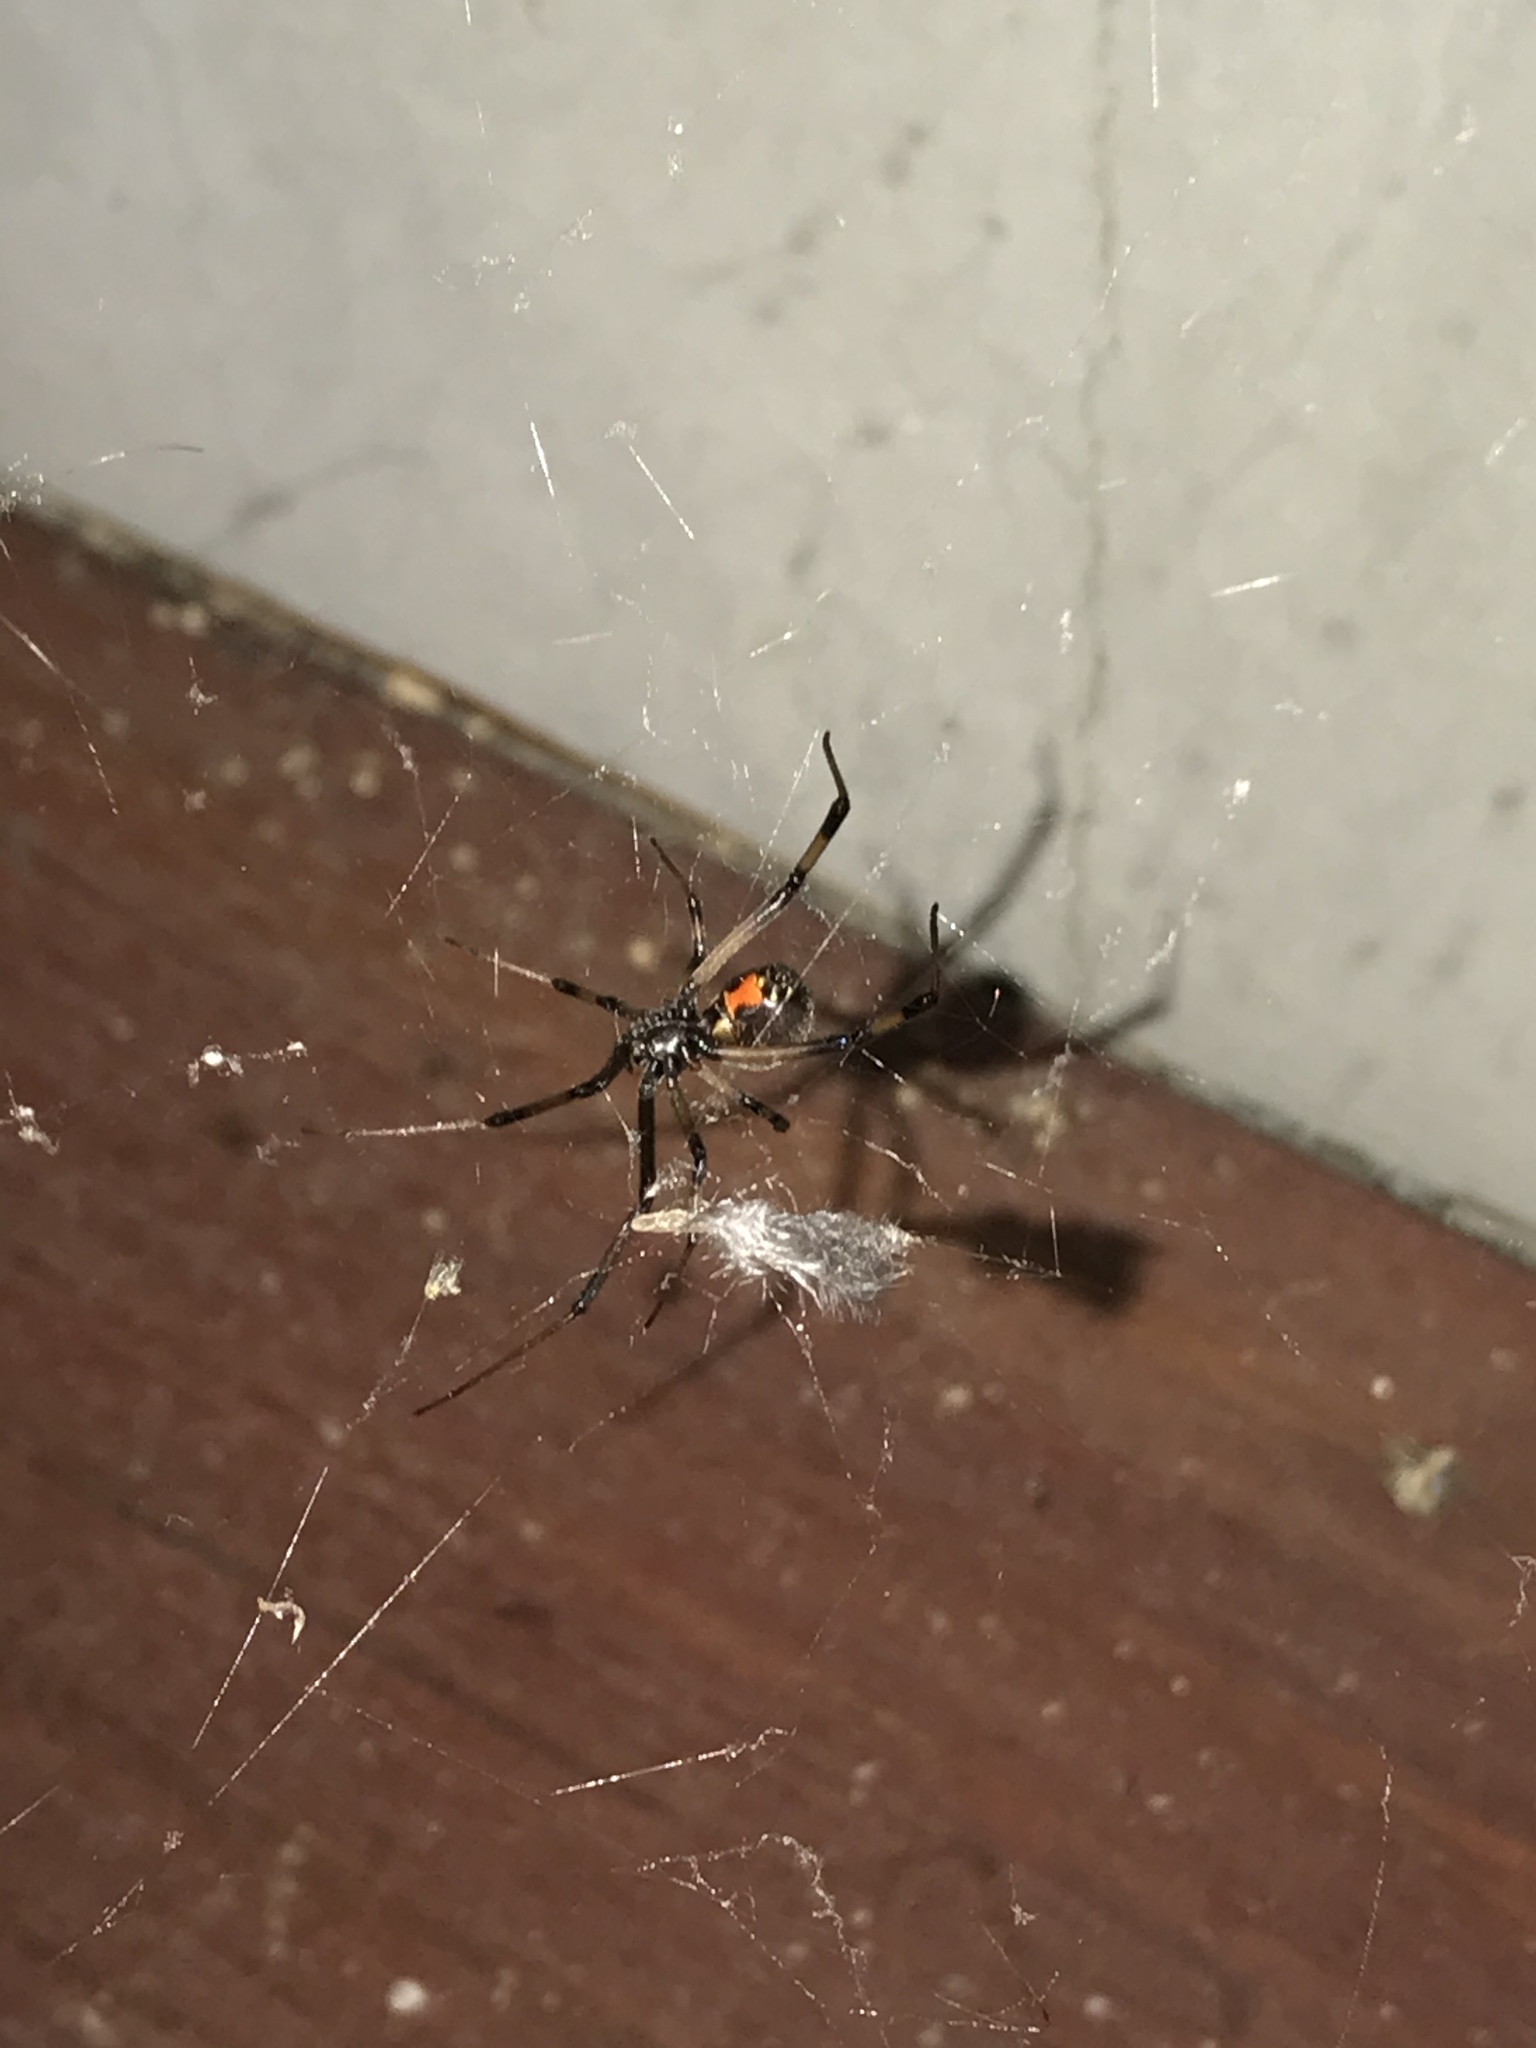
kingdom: Animalia
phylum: Arthropoda
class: Arachnida
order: Araneae
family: Theridiidae
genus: Latrodectus
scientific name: Latrodectus geometricus
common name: Brown widow spider
